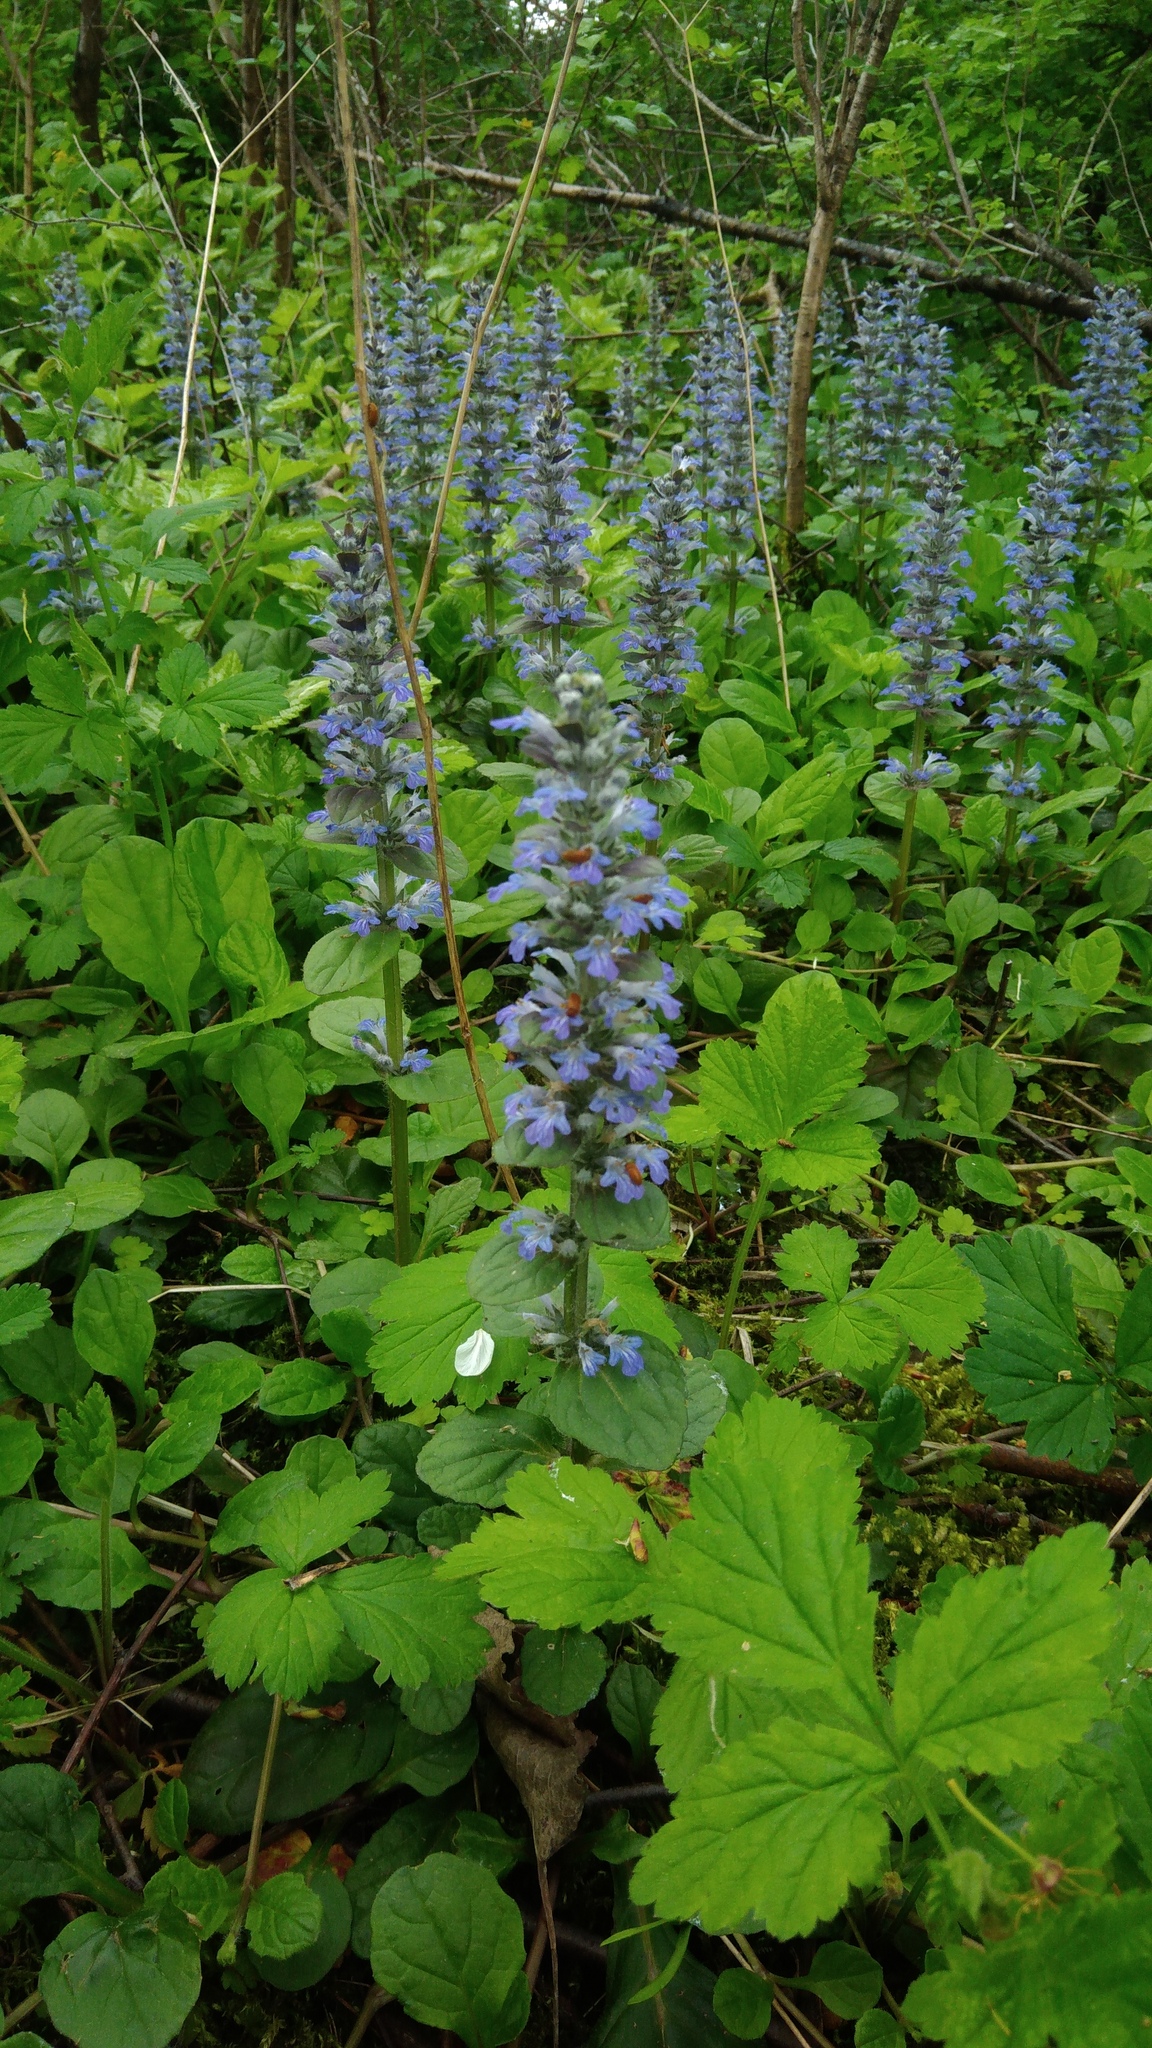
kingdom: Plantae
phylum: Tracheophyta
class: Magnoliopsida
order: Lamiales
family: Lamiaceae
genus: Ajuga
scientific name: Ajuga reptans
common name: Bugle
